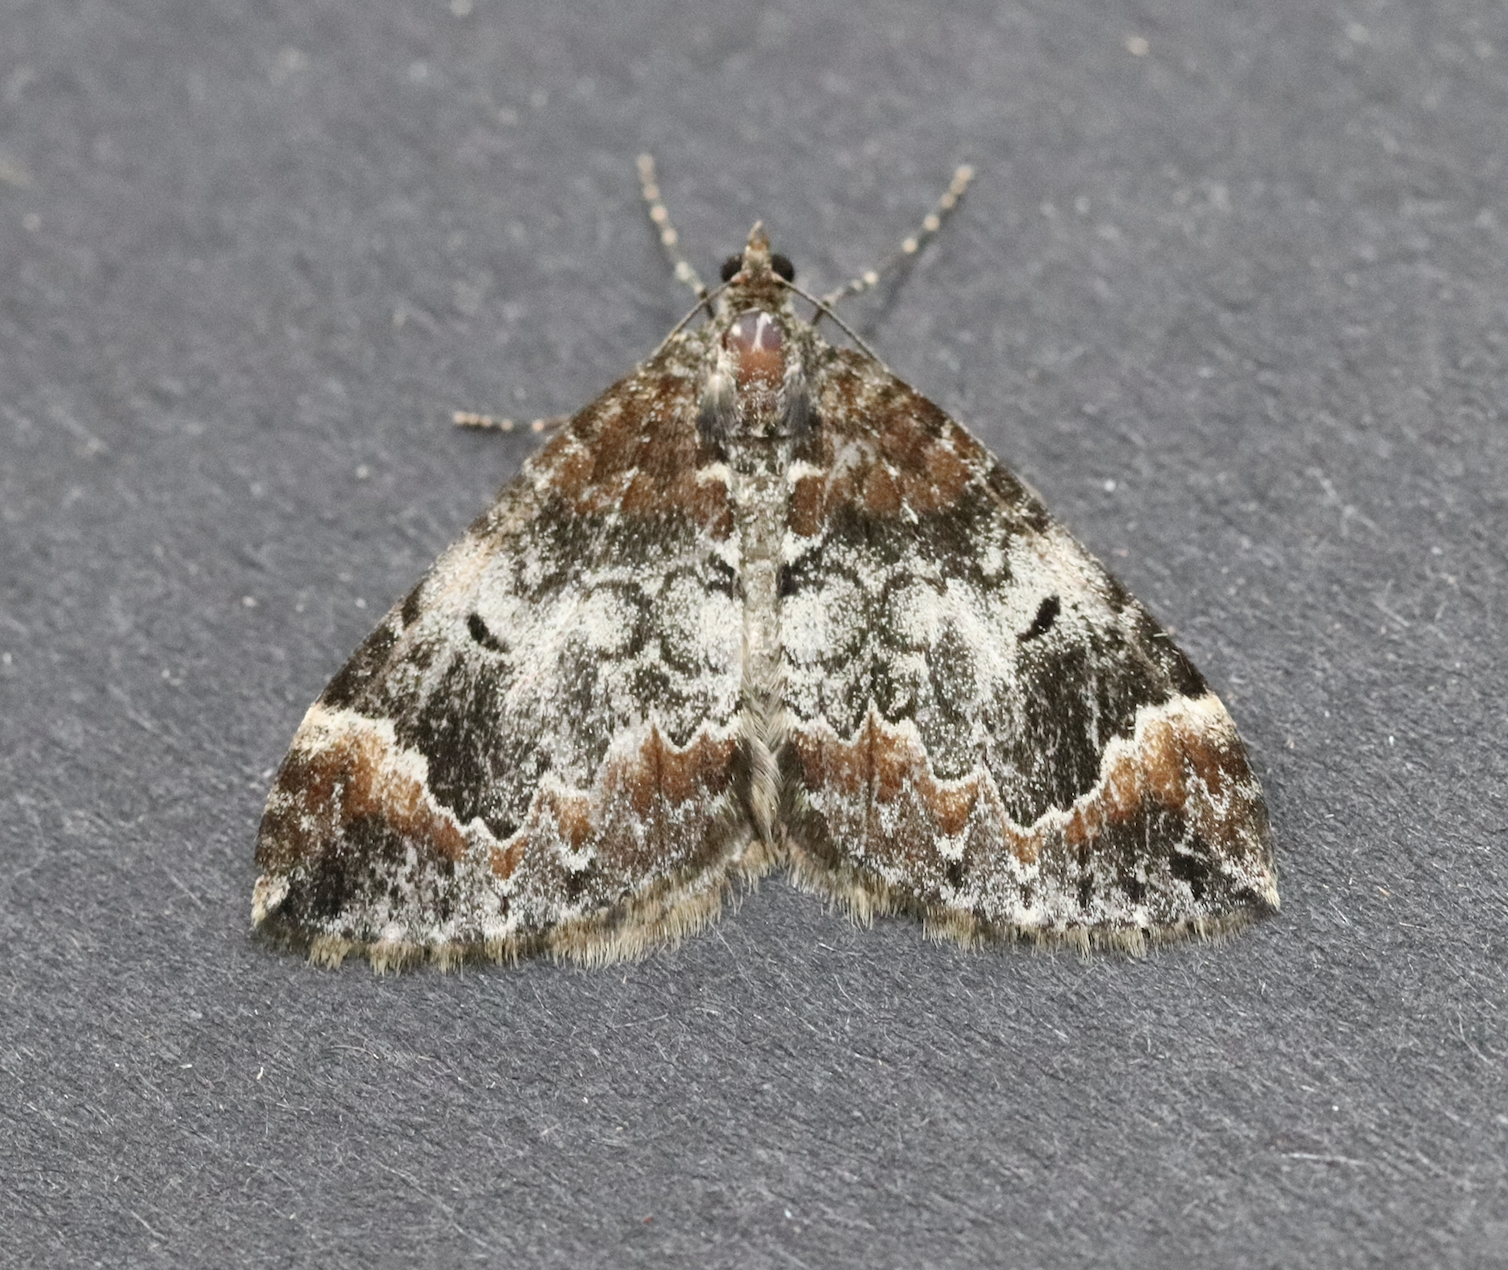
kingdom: Animalia
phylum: Arthropoda
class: Insecta
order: Lepidoptera
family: Geometridae
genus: Dysstroma
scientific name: Dysstroma truncata
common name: Common marbled carpet
